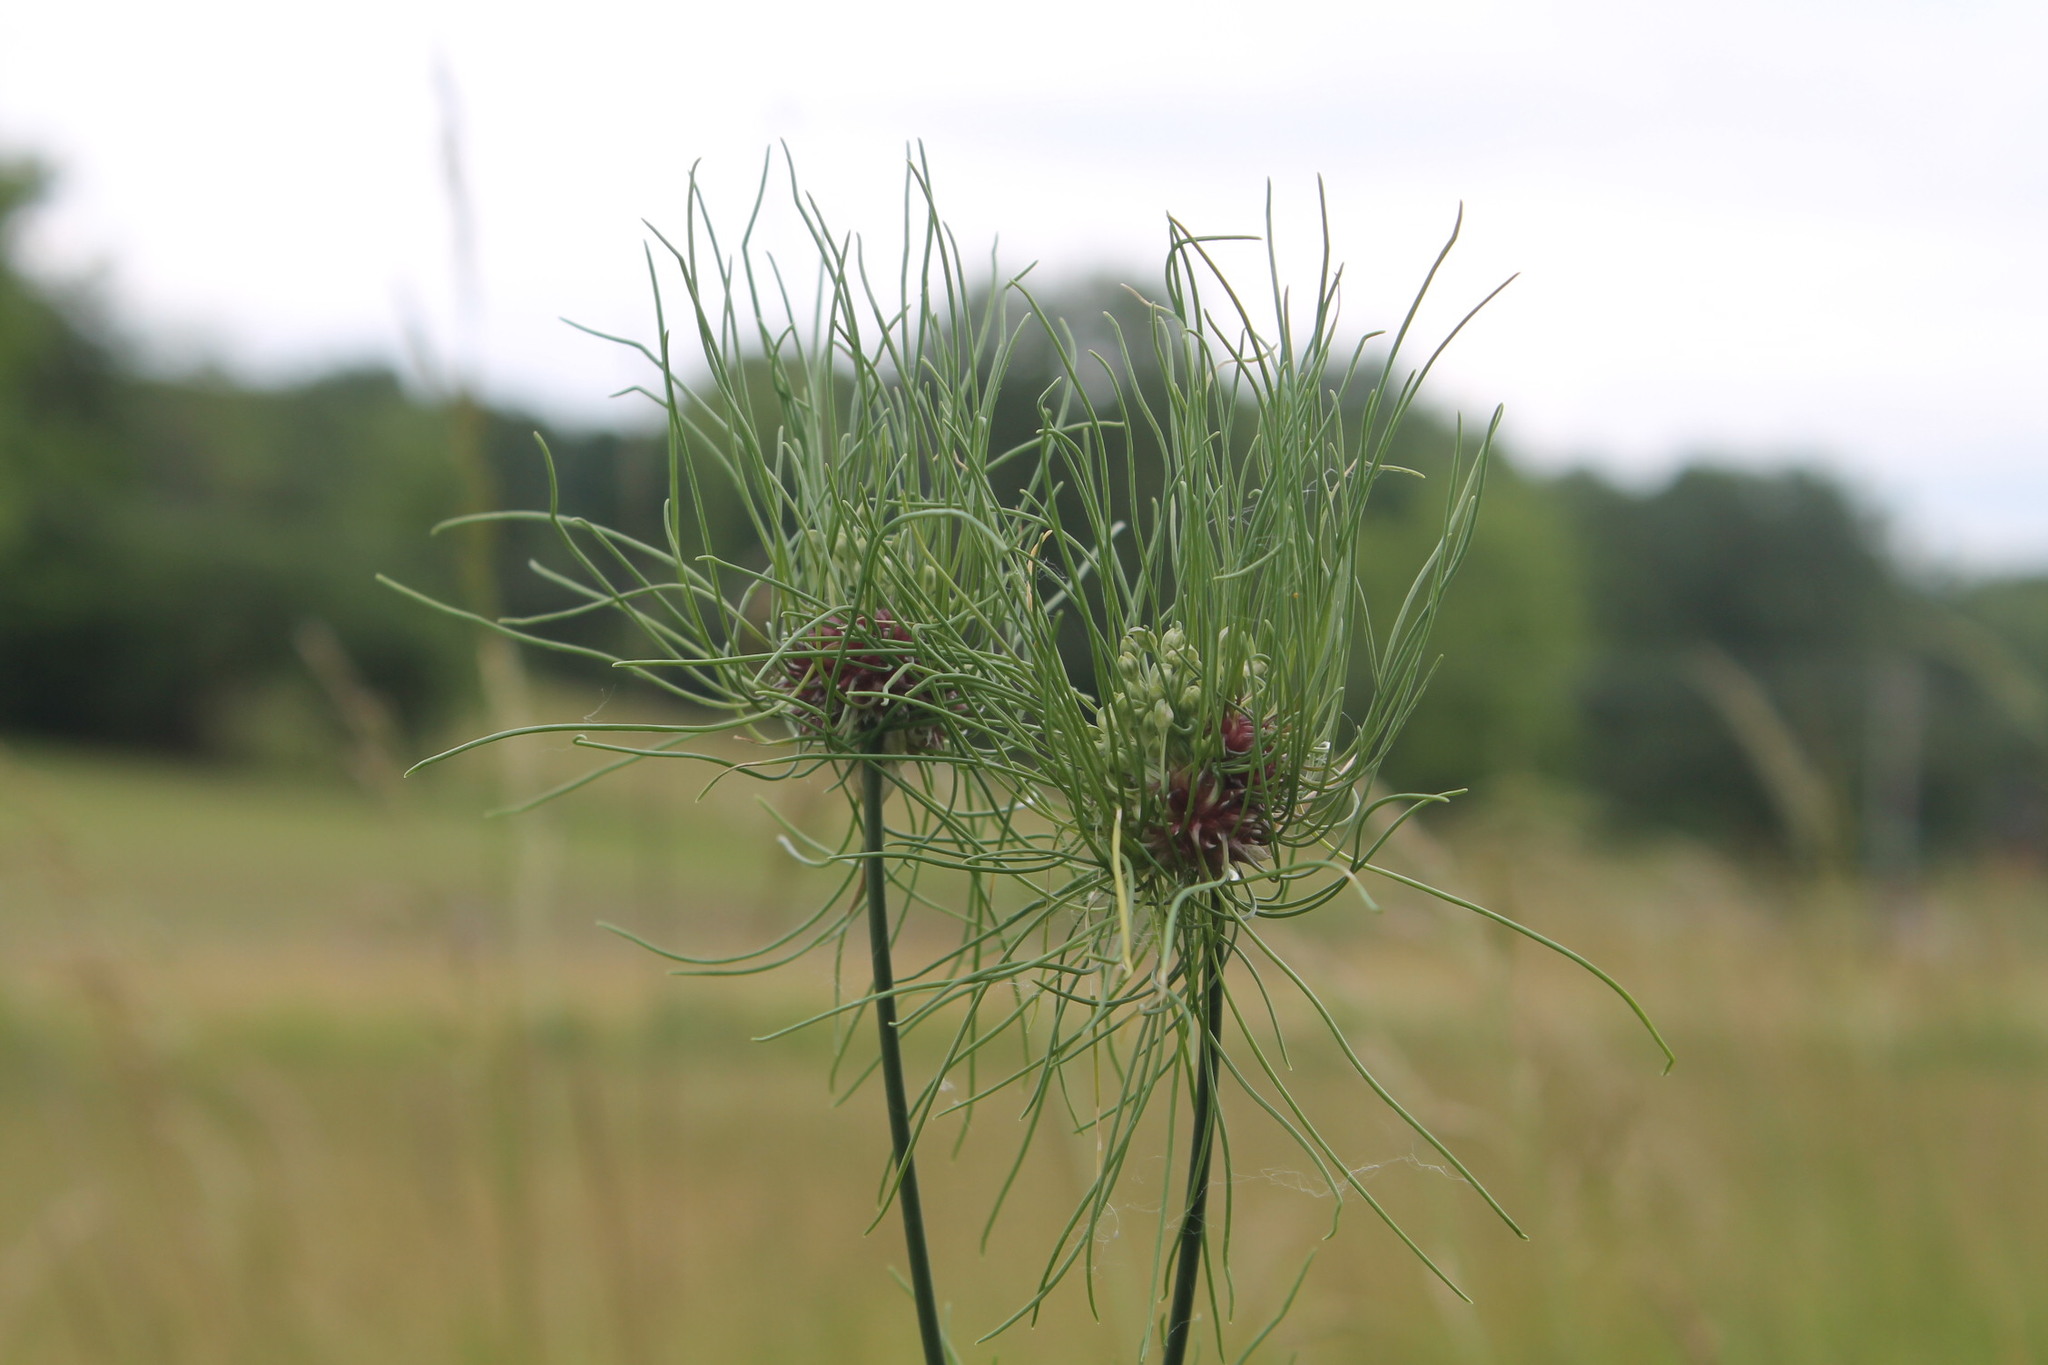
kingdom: Plantae
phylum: Tracheophyta
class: Liliopsida
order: Asparagales
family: Amaryllidaceae
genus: Allium
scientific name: Allium vineale
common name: Crow garlic
